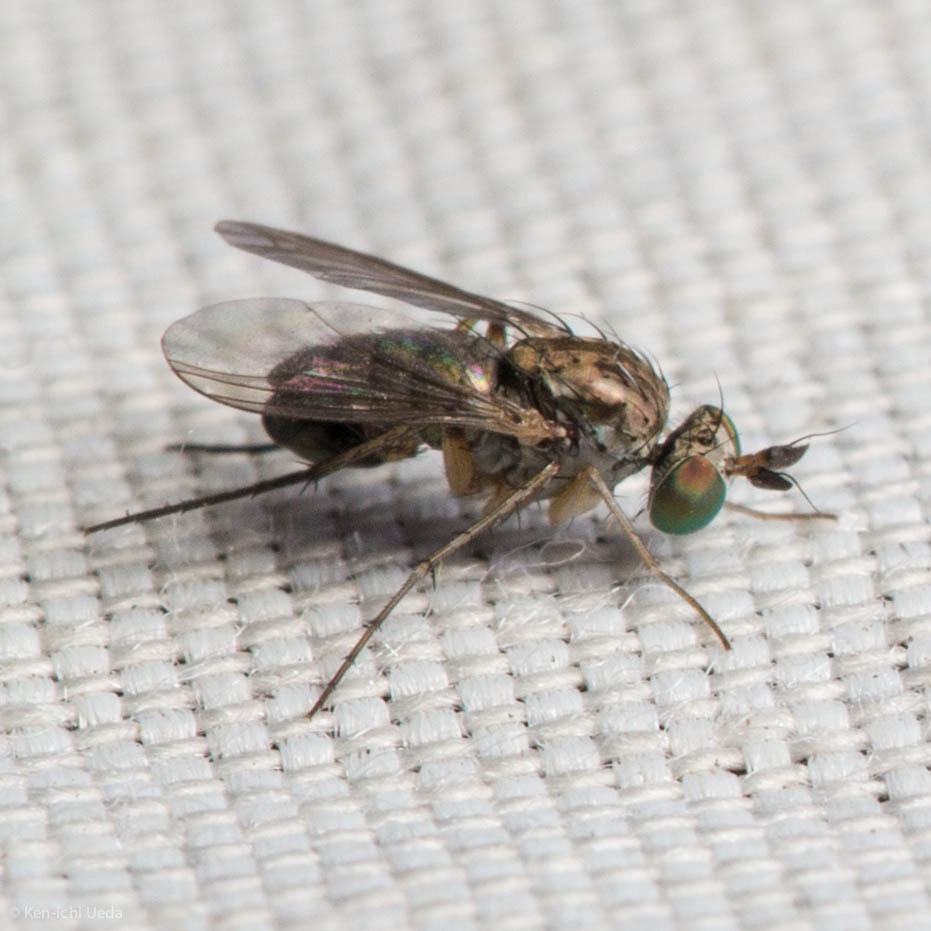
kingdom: Animalia
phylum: Arthropoda
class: Insecta
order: Diptera
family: Dolichopodidae
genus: Hercostomus
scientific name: Hercostomus impudicus
